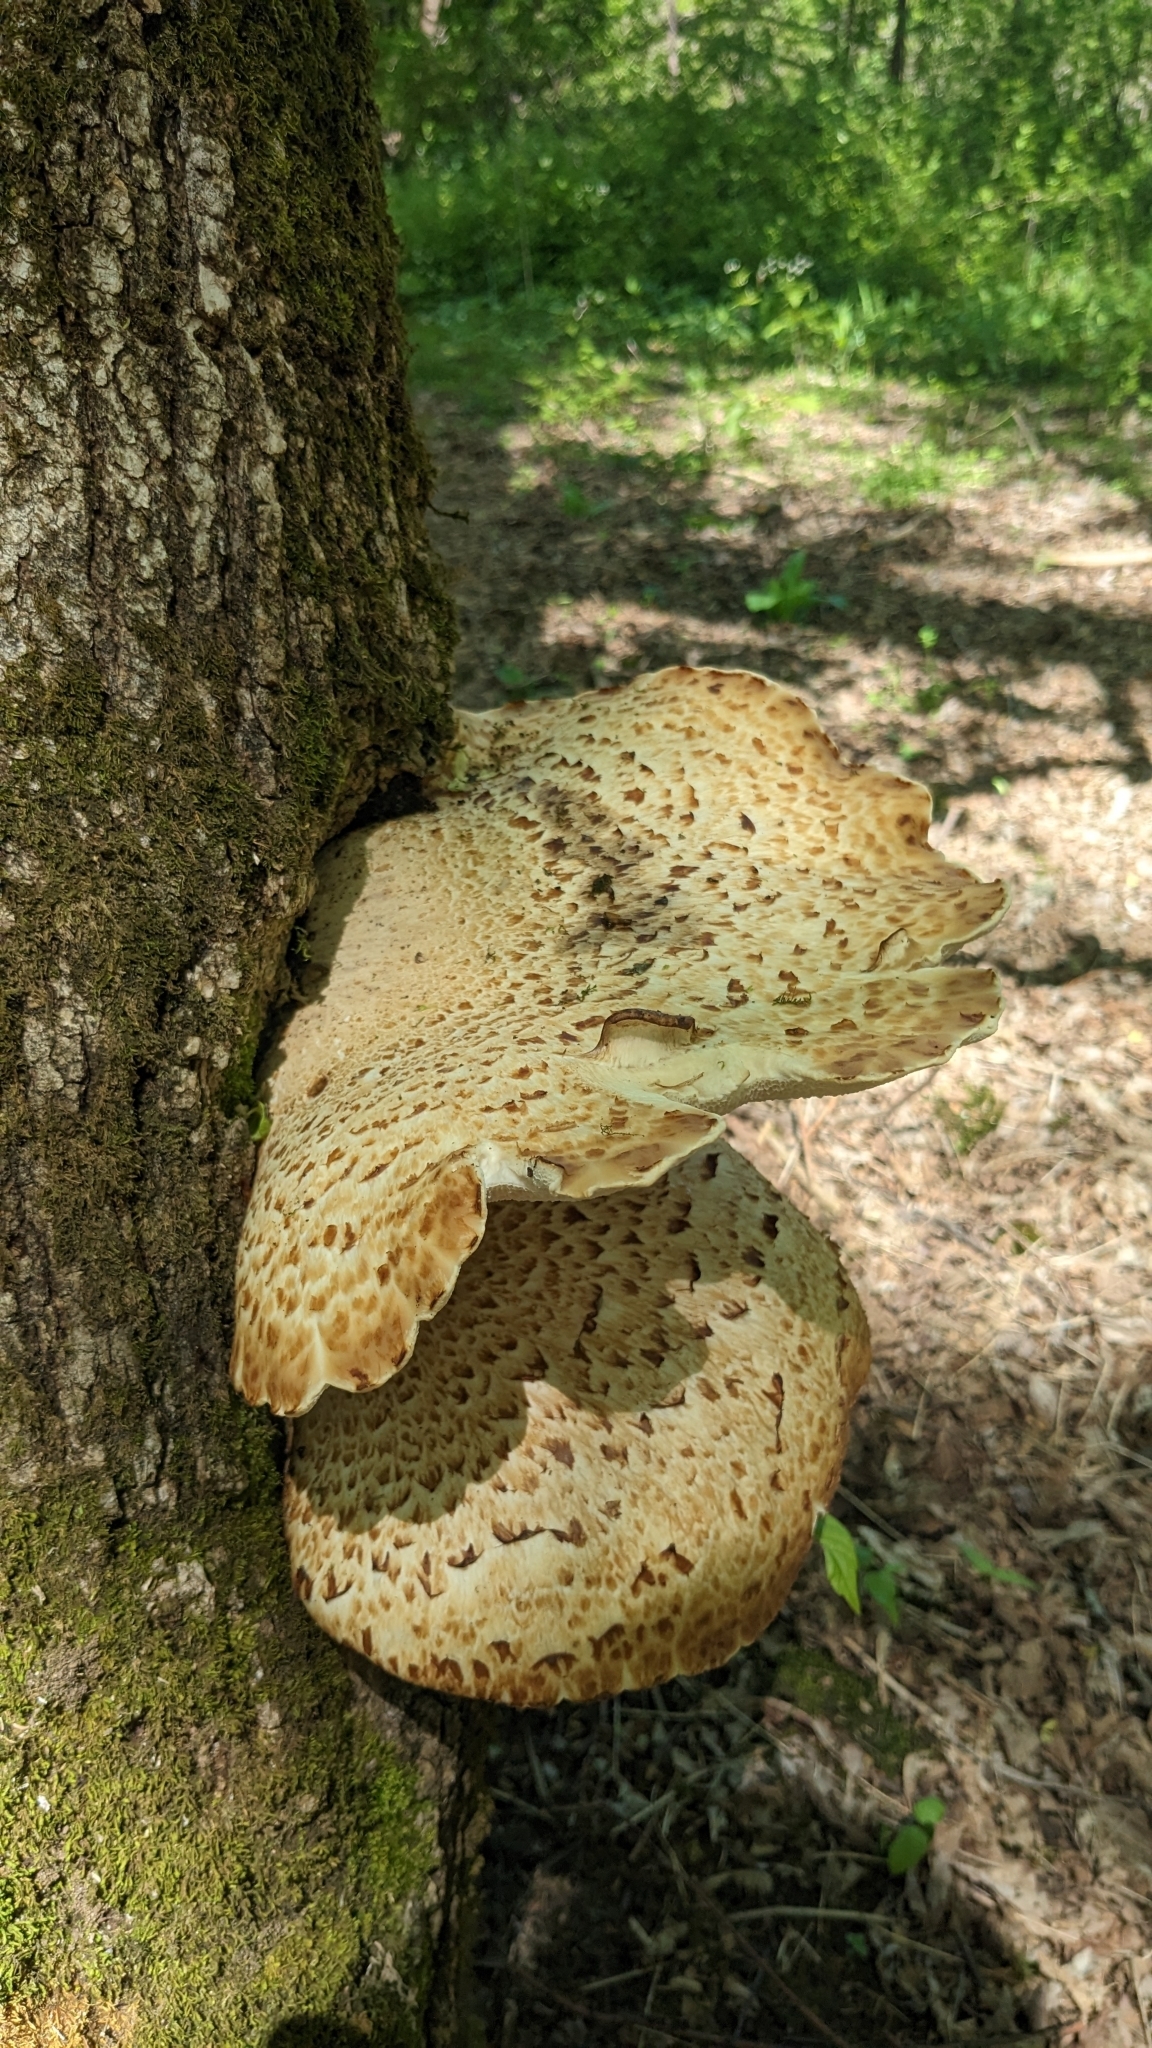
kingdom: Fungi
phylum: Basidiomycota
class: Agaricomycetes
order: Polyporales
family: Polyporaceae
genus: Cerioporus
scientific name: Cerioporus squamosus
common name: Dryad's saddle
